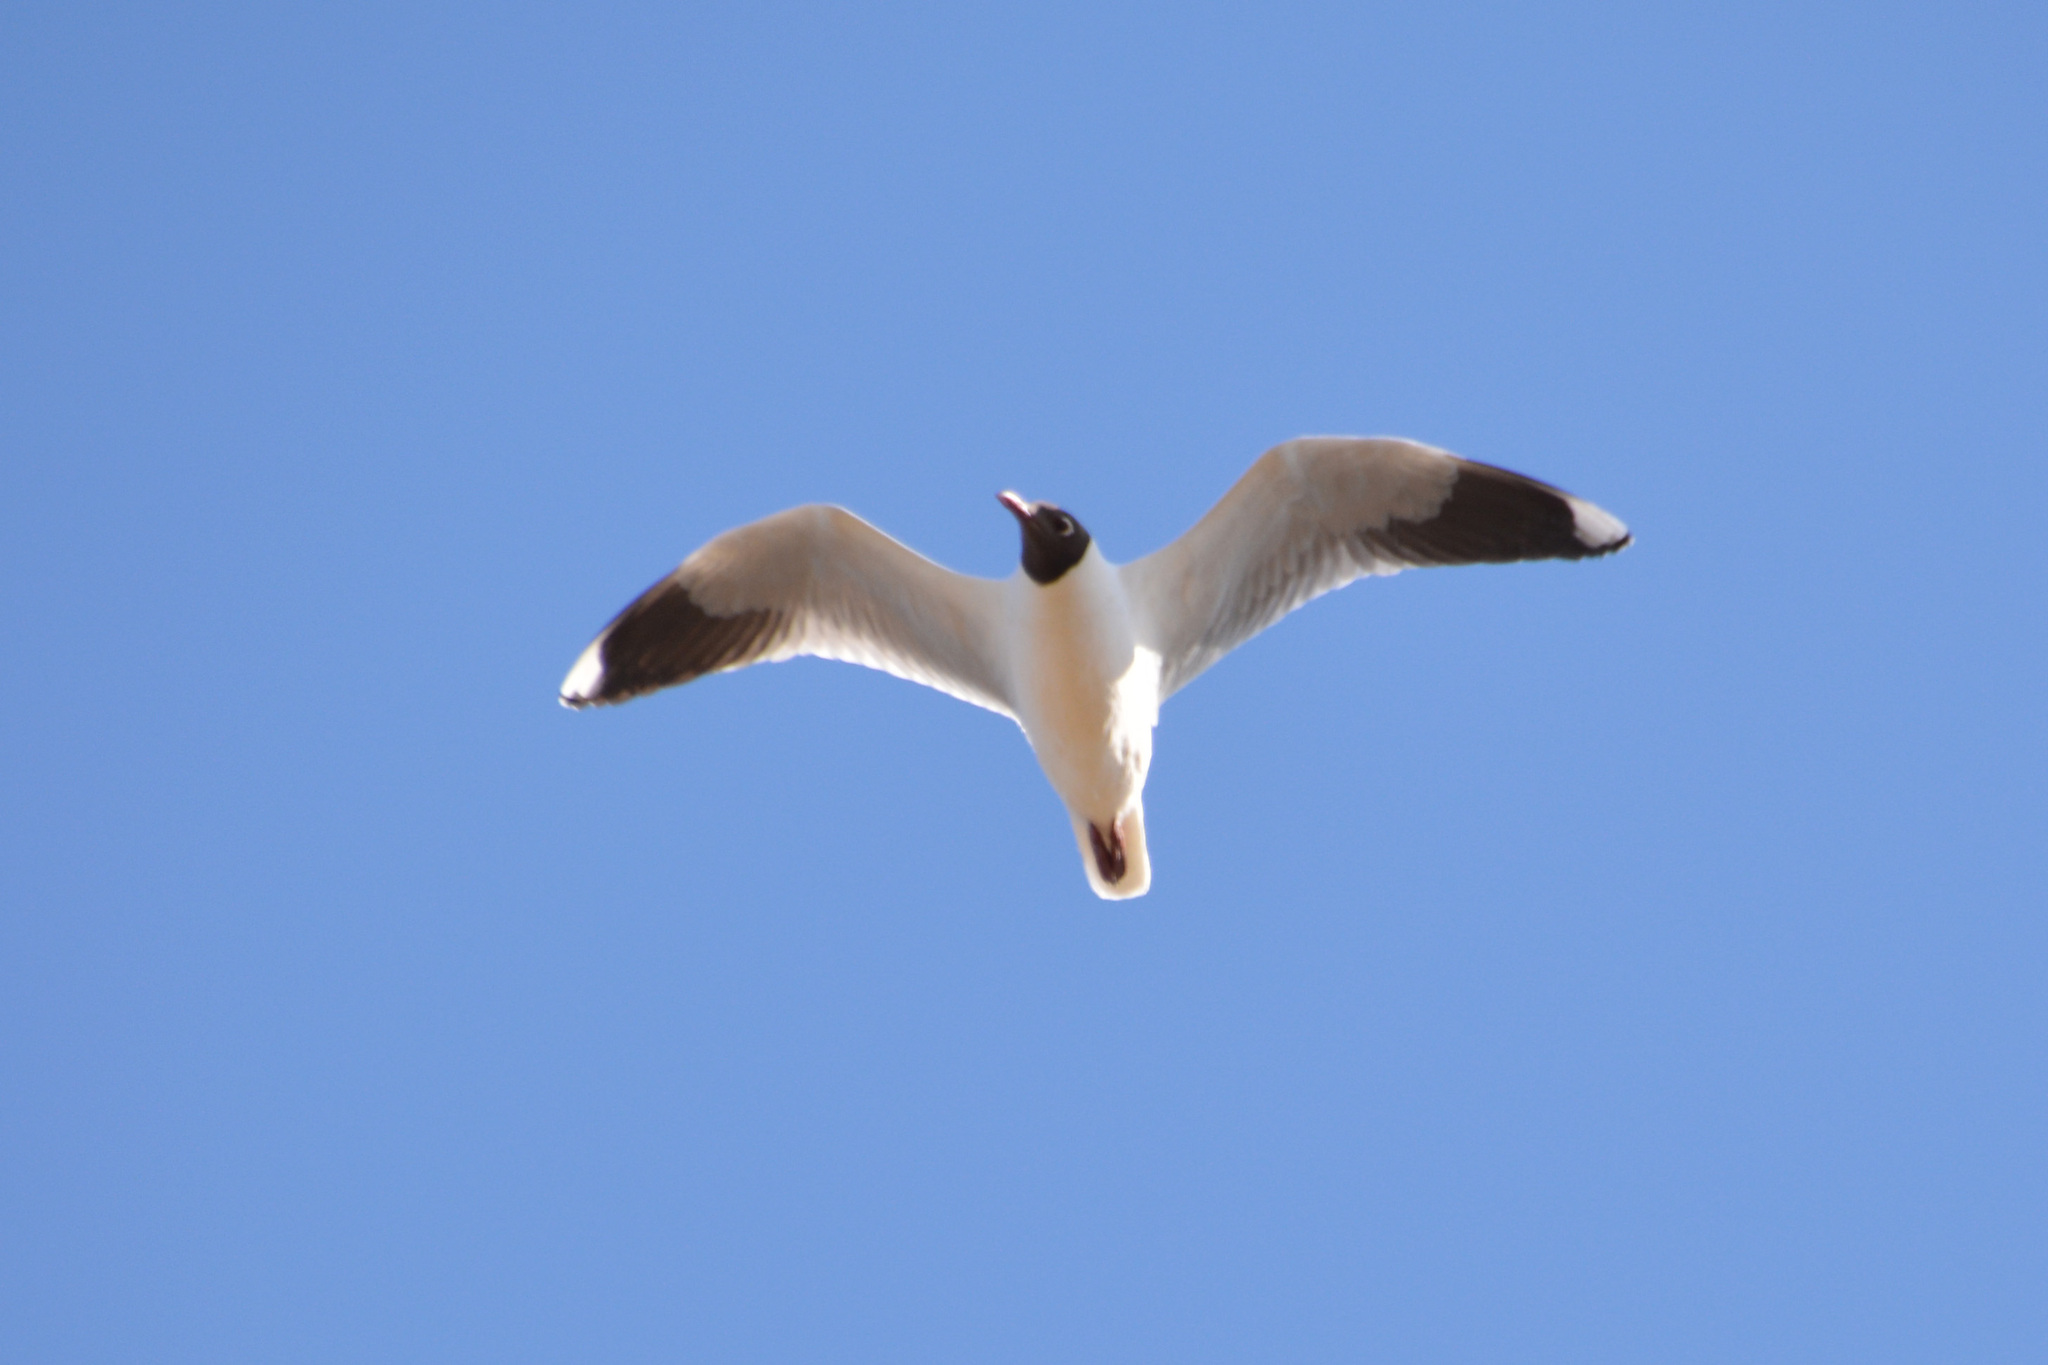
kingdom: Animalia
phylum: Chordata
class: Aves
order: Charadriiformes
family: Laridae
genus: Chroicocephalus
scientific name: Chroicocephalus maculipennis
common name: Brown-hooded gull
